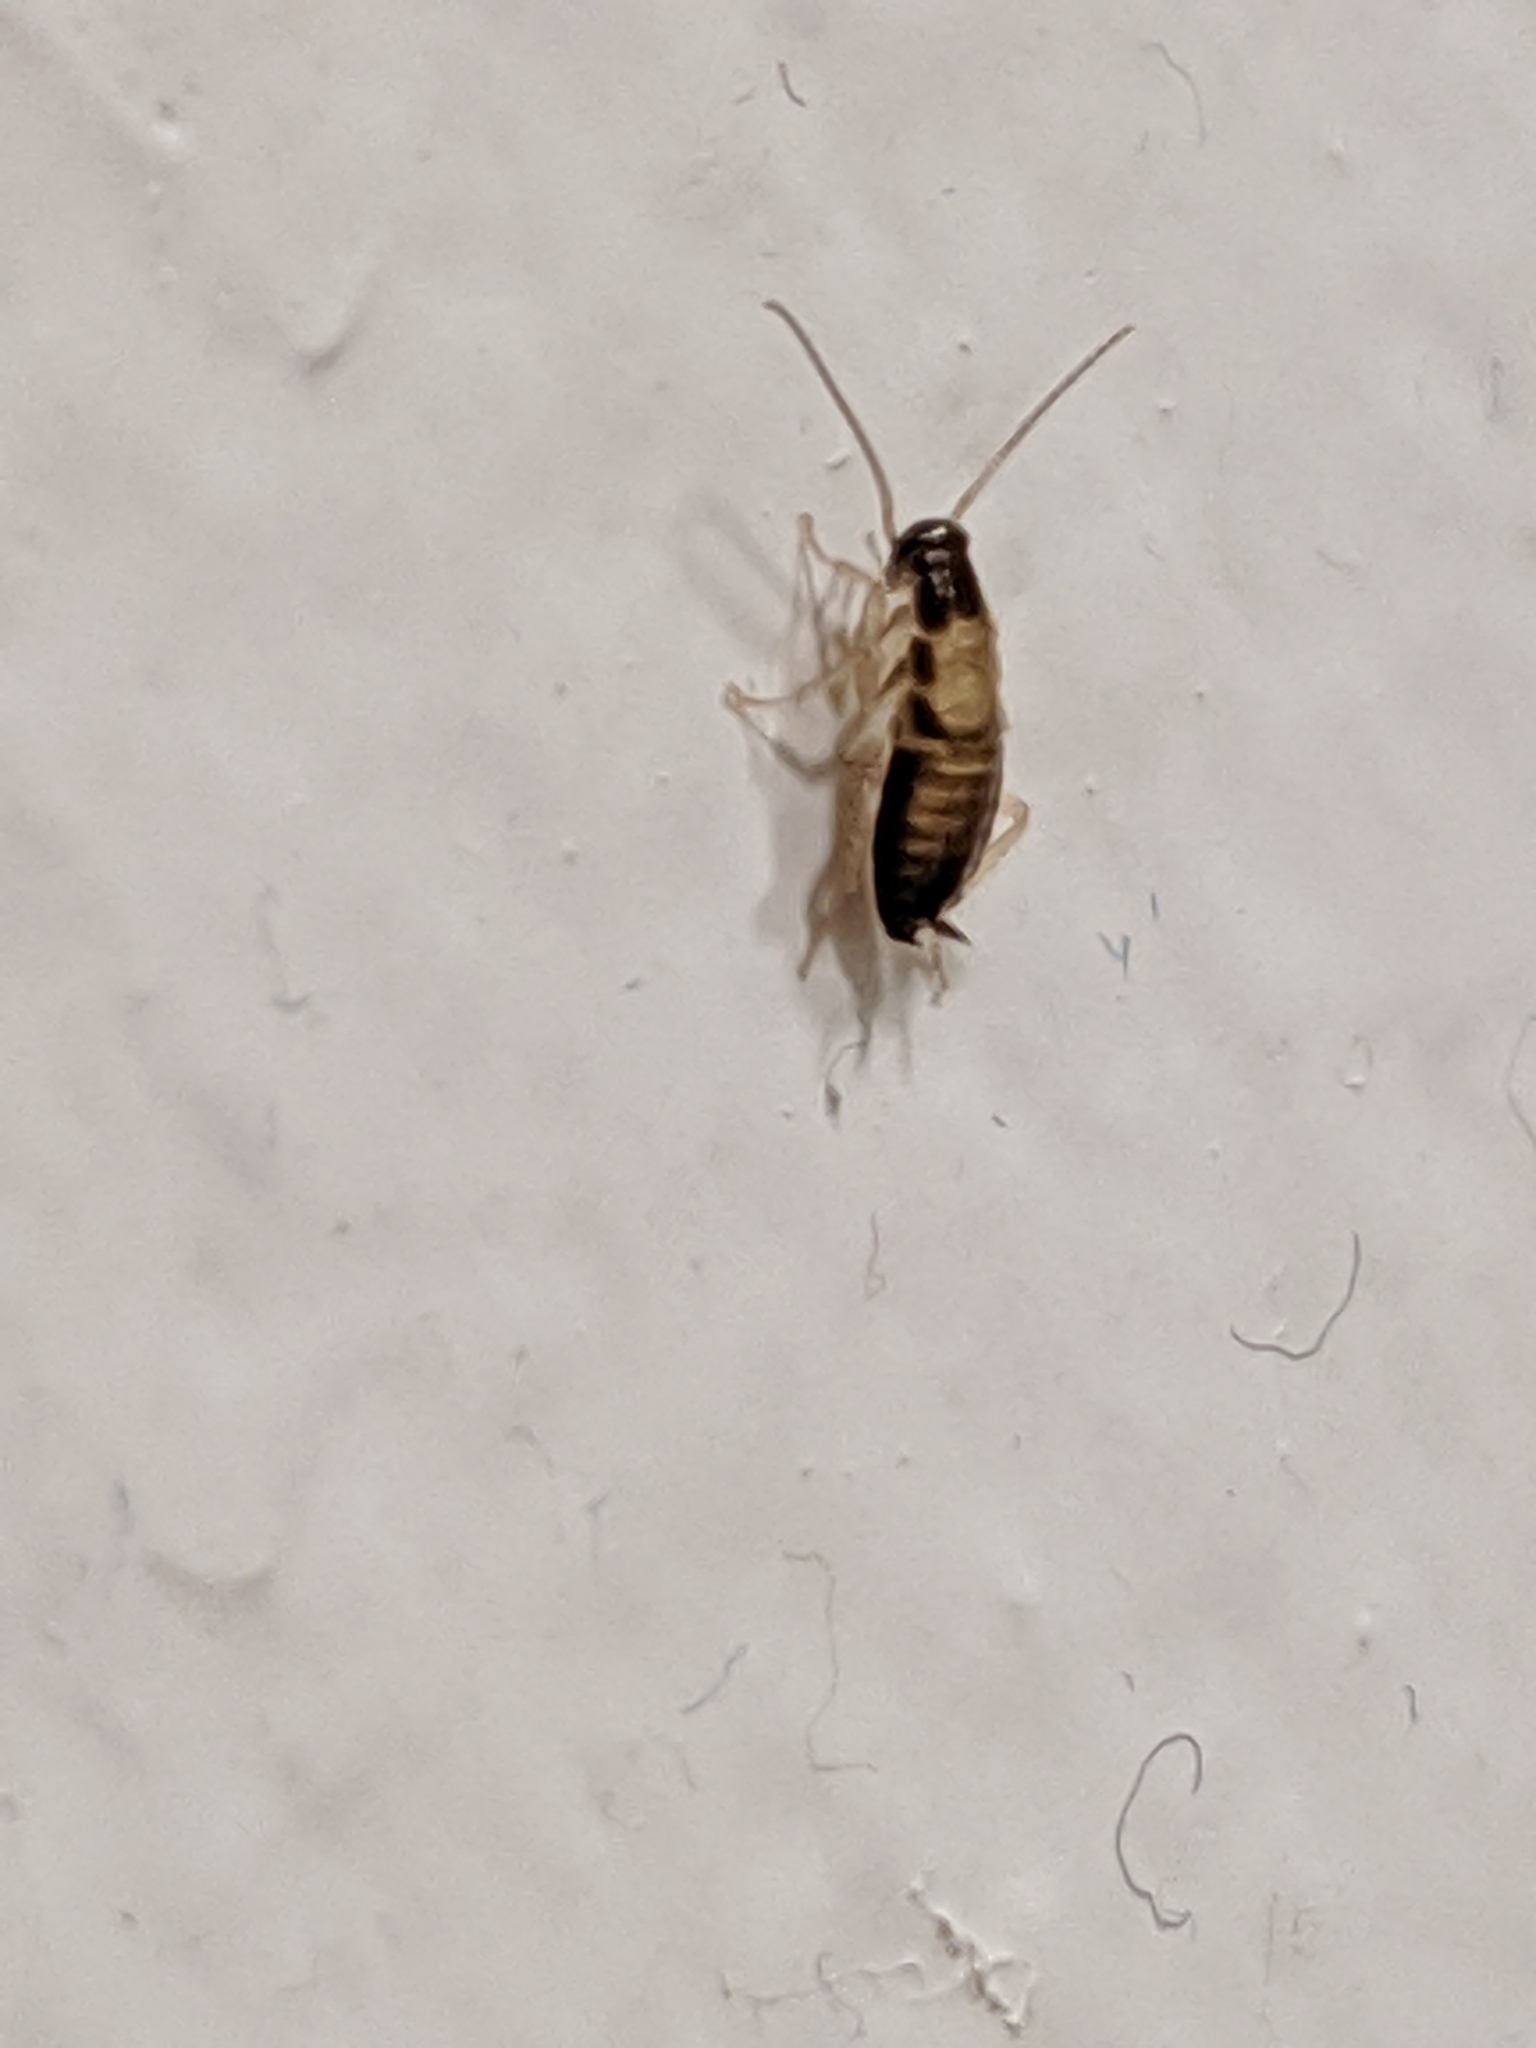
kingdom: Animalia
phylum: Arthropoda
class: Insecta
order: Blattodea
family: Ectobiidae
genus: Blattella
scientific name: Blattella germanica
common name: German cockroach
